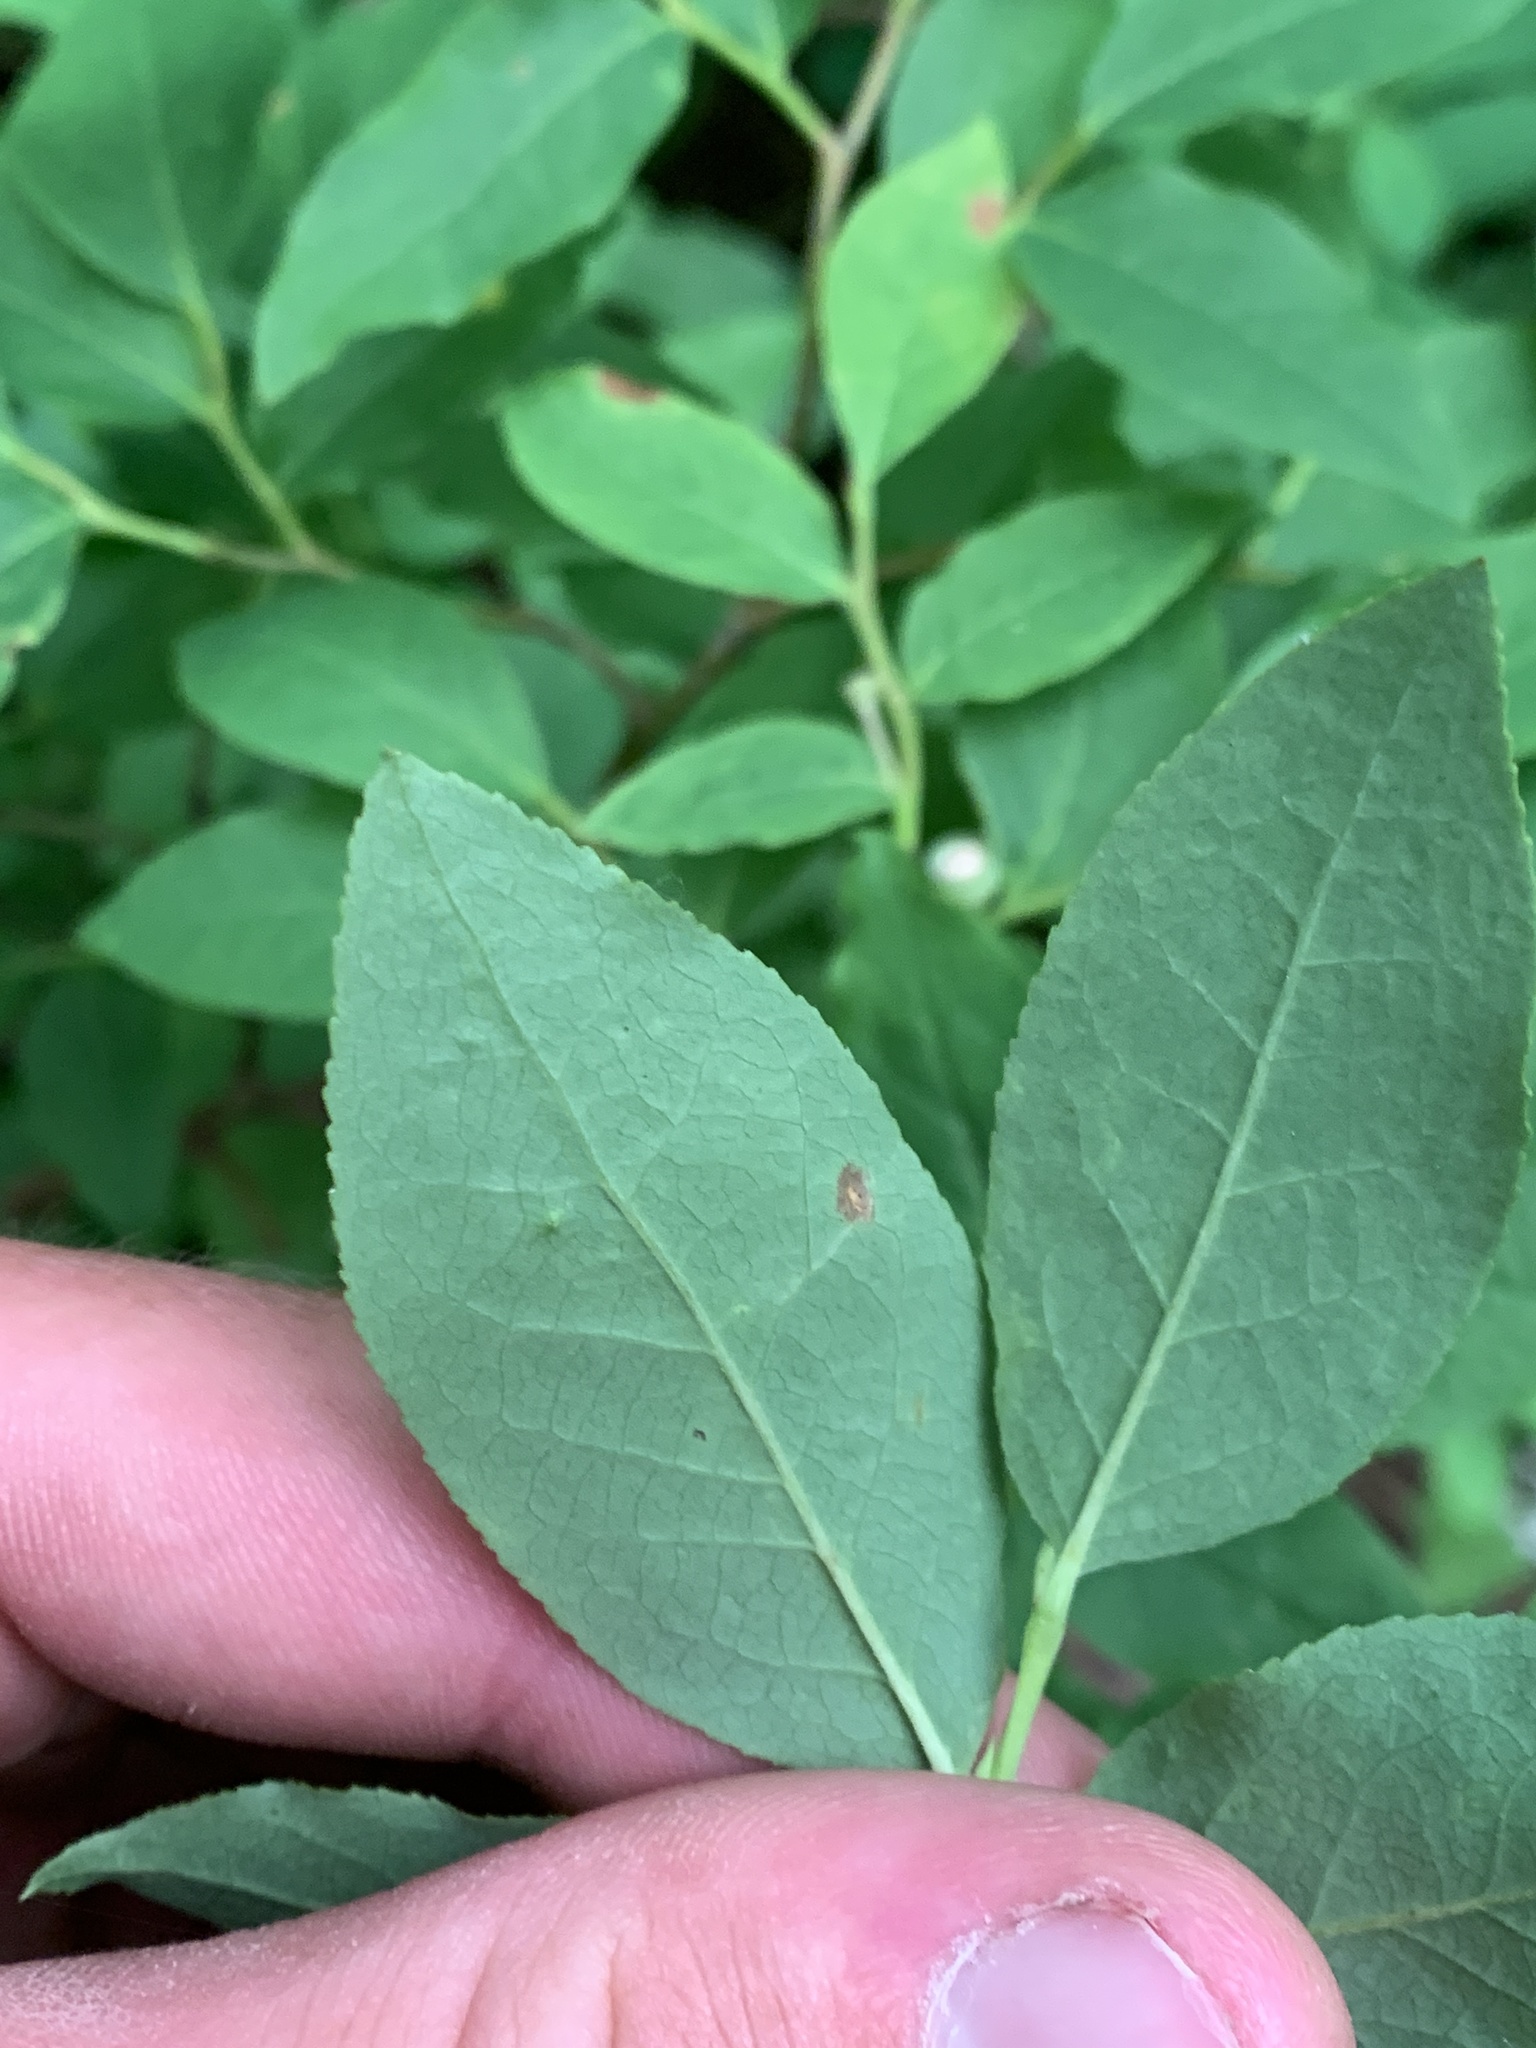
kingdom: Plantae
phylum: Tracheophyta
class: Magnoliopsida
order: Ericales
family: Ericaceae
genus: Vaccinium
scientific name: Vaccinium membranaceum
